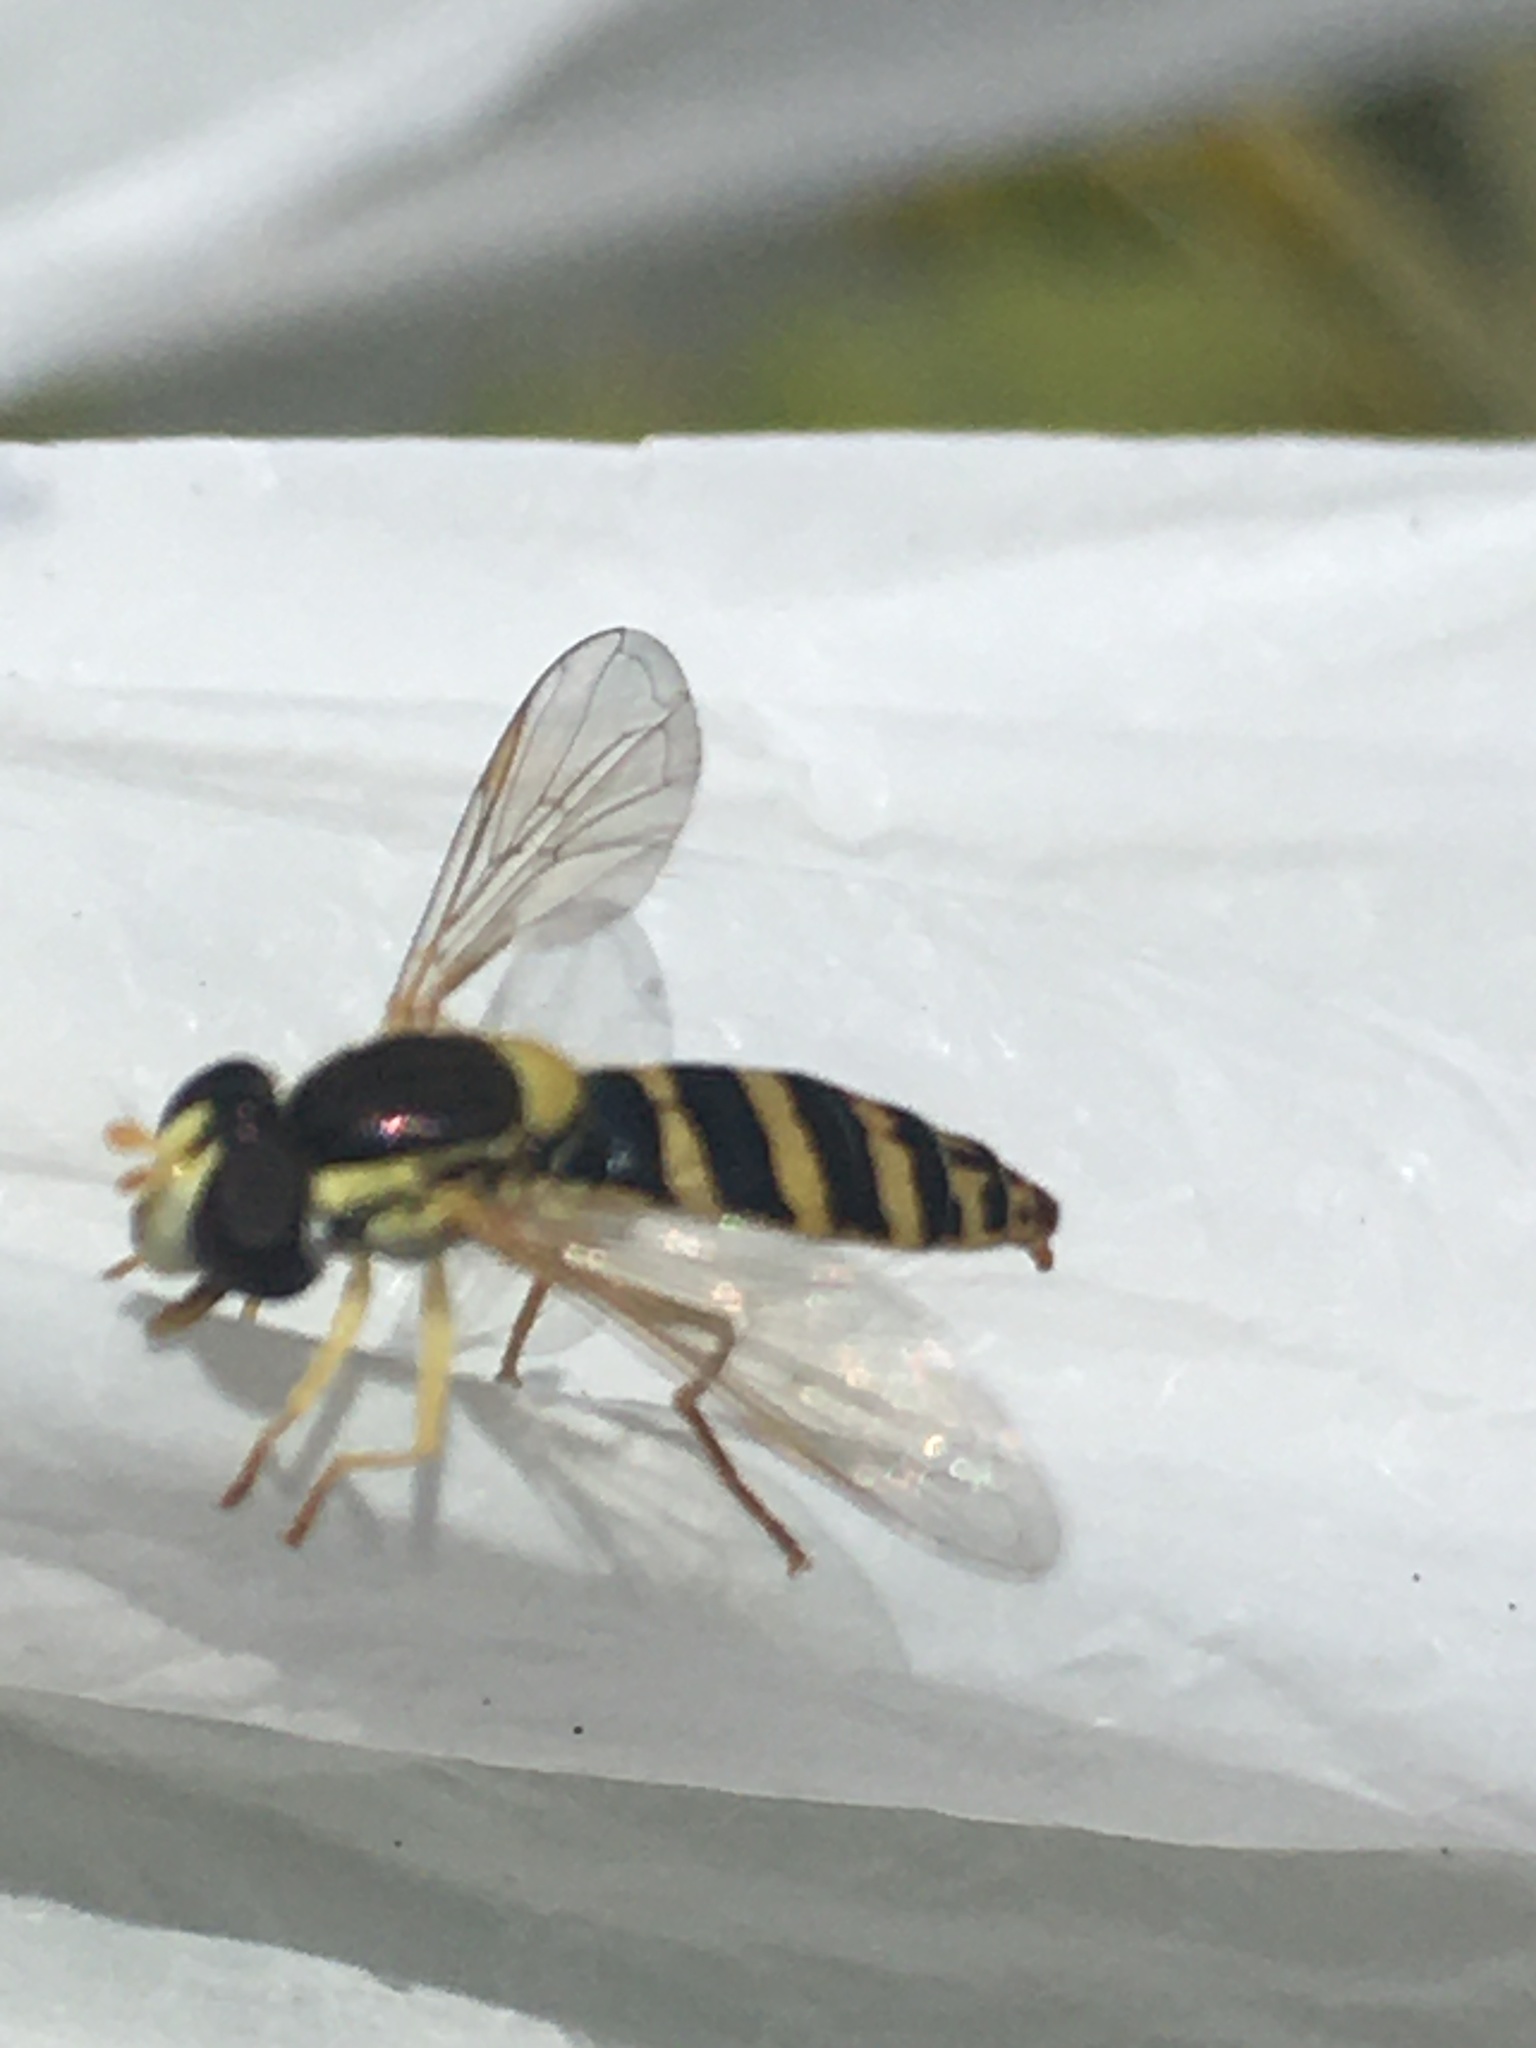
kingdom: Animalia
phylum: Arthropoda
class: Insecta
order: Diptera
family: Syrphidae
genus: Sphaerophoria
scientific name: Sphaerophoria
